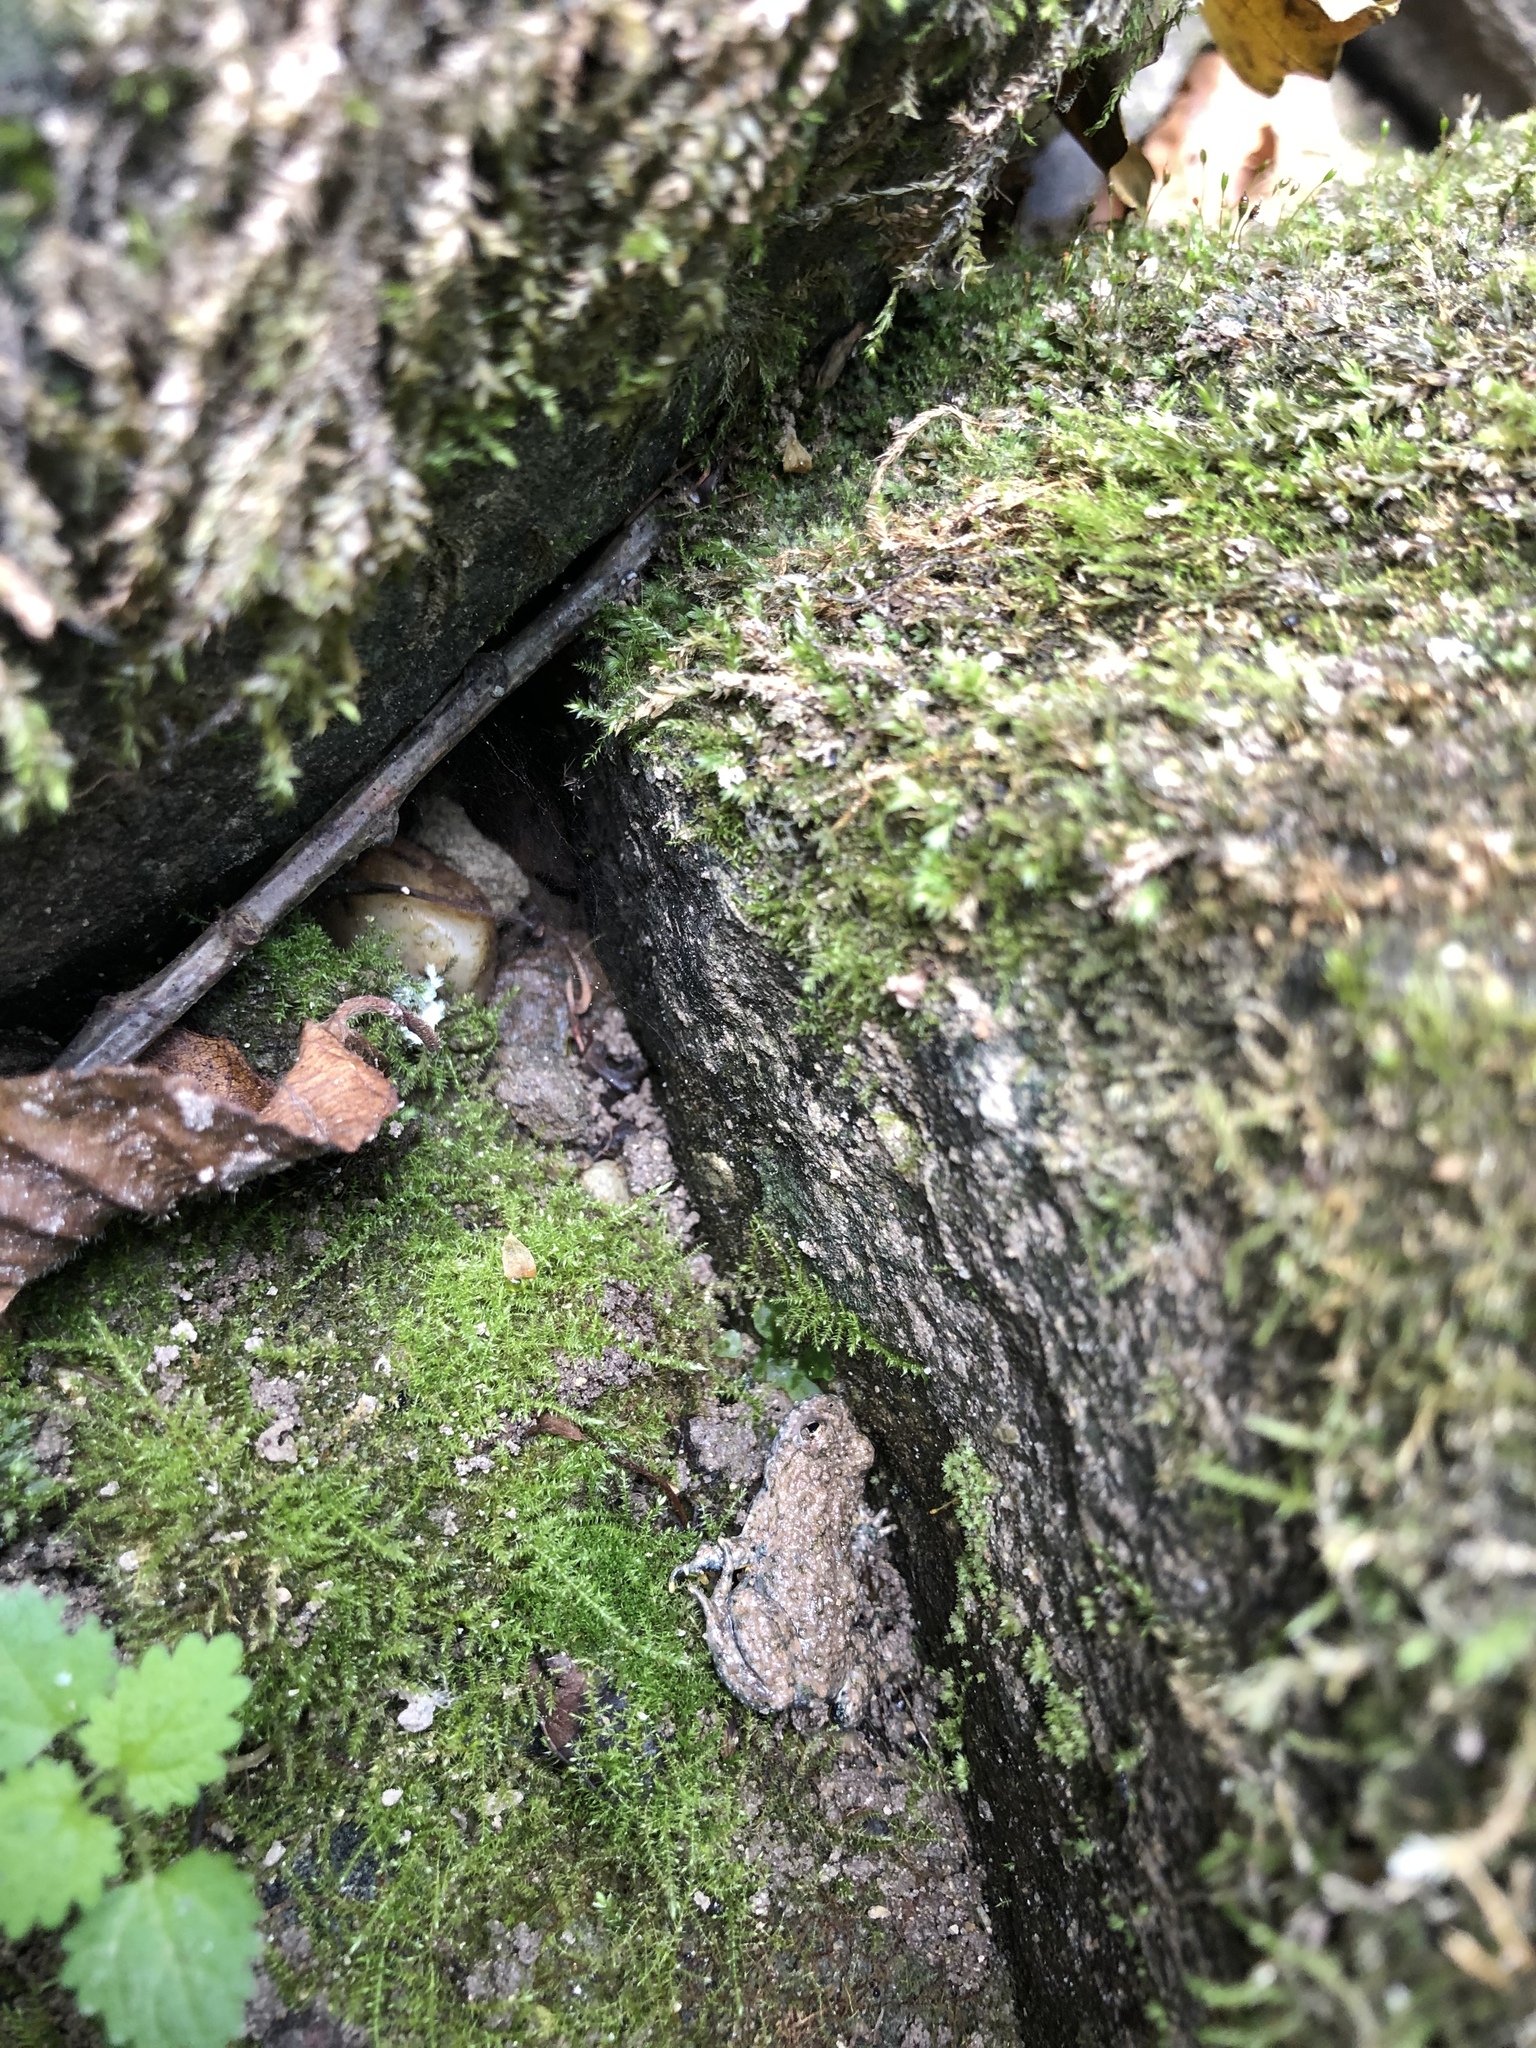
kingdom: Animalia
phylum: Chordata
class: Amphibia
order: Anura
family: Bombinatoridae
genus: Bombina
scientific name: Bombina variegata
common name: Yellow-bellied toad
